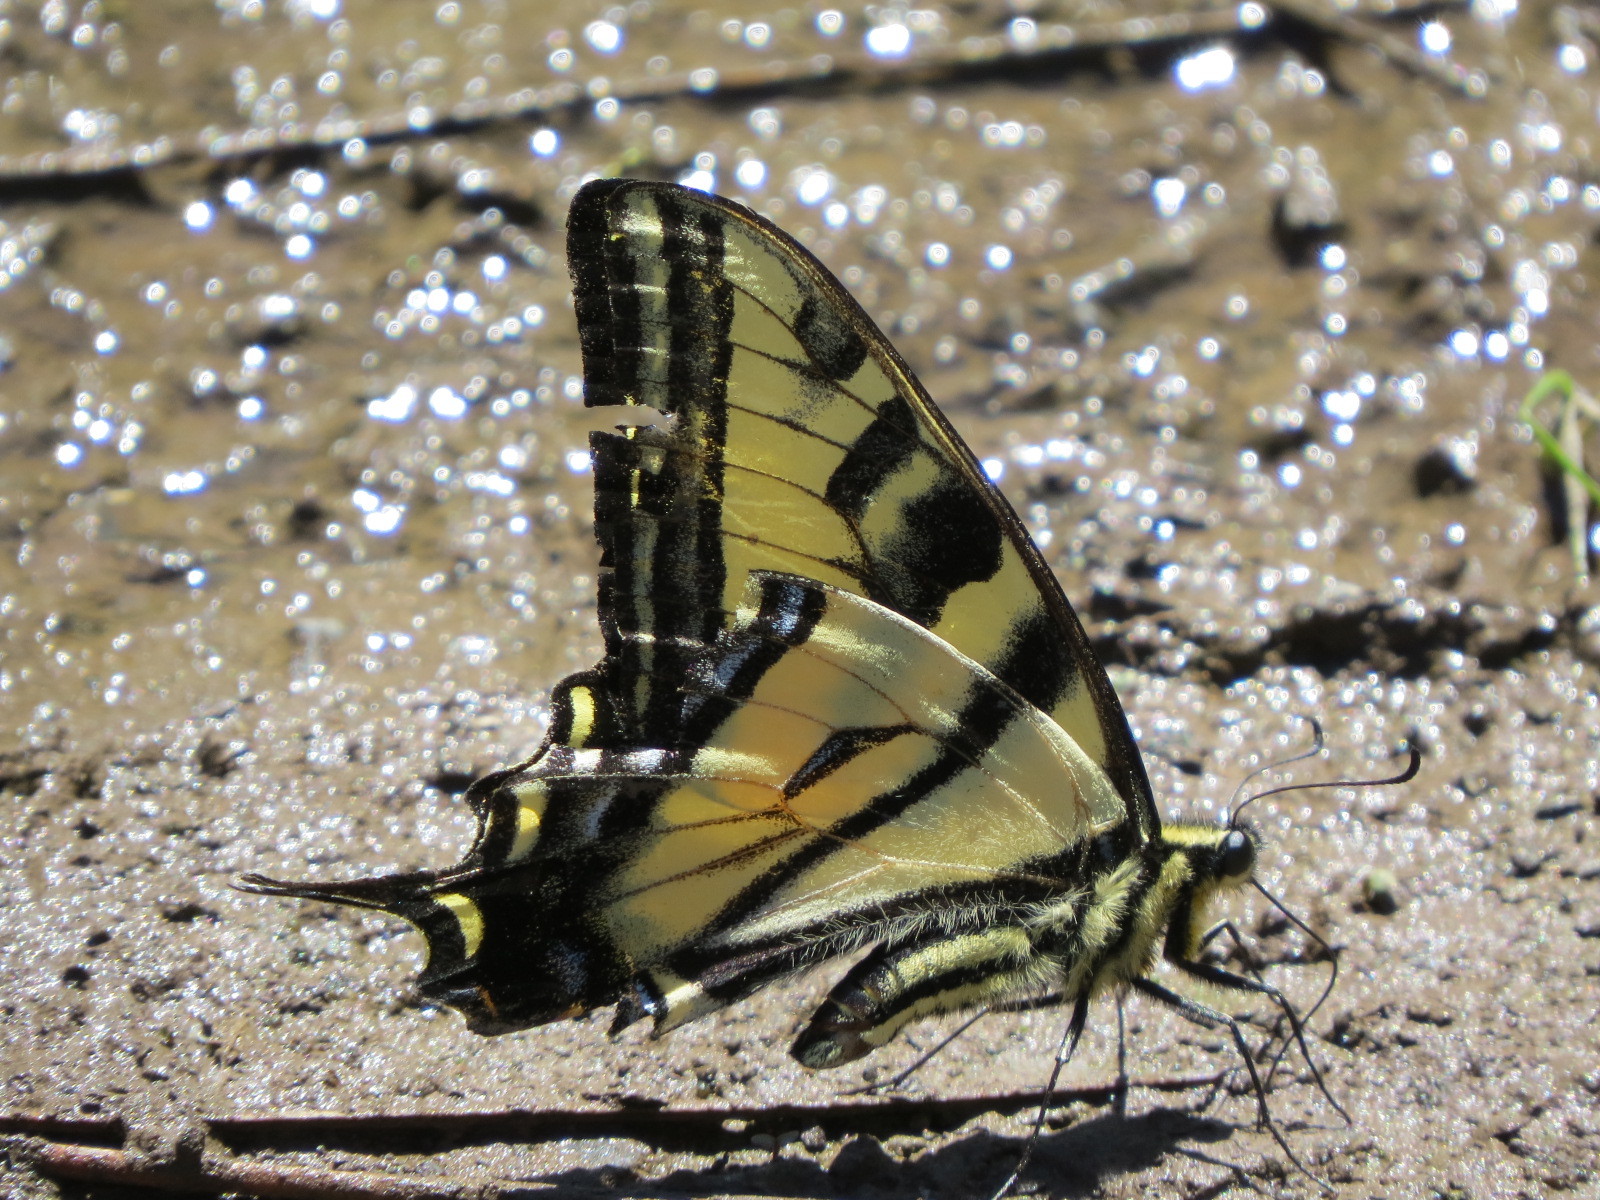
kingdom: Animalia
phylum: Arthropoda
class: Insecta
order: Lepidoptera
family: Papilionidae
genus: Papilio
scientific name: Papilio rutulus
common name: Western tiger swallowtail
